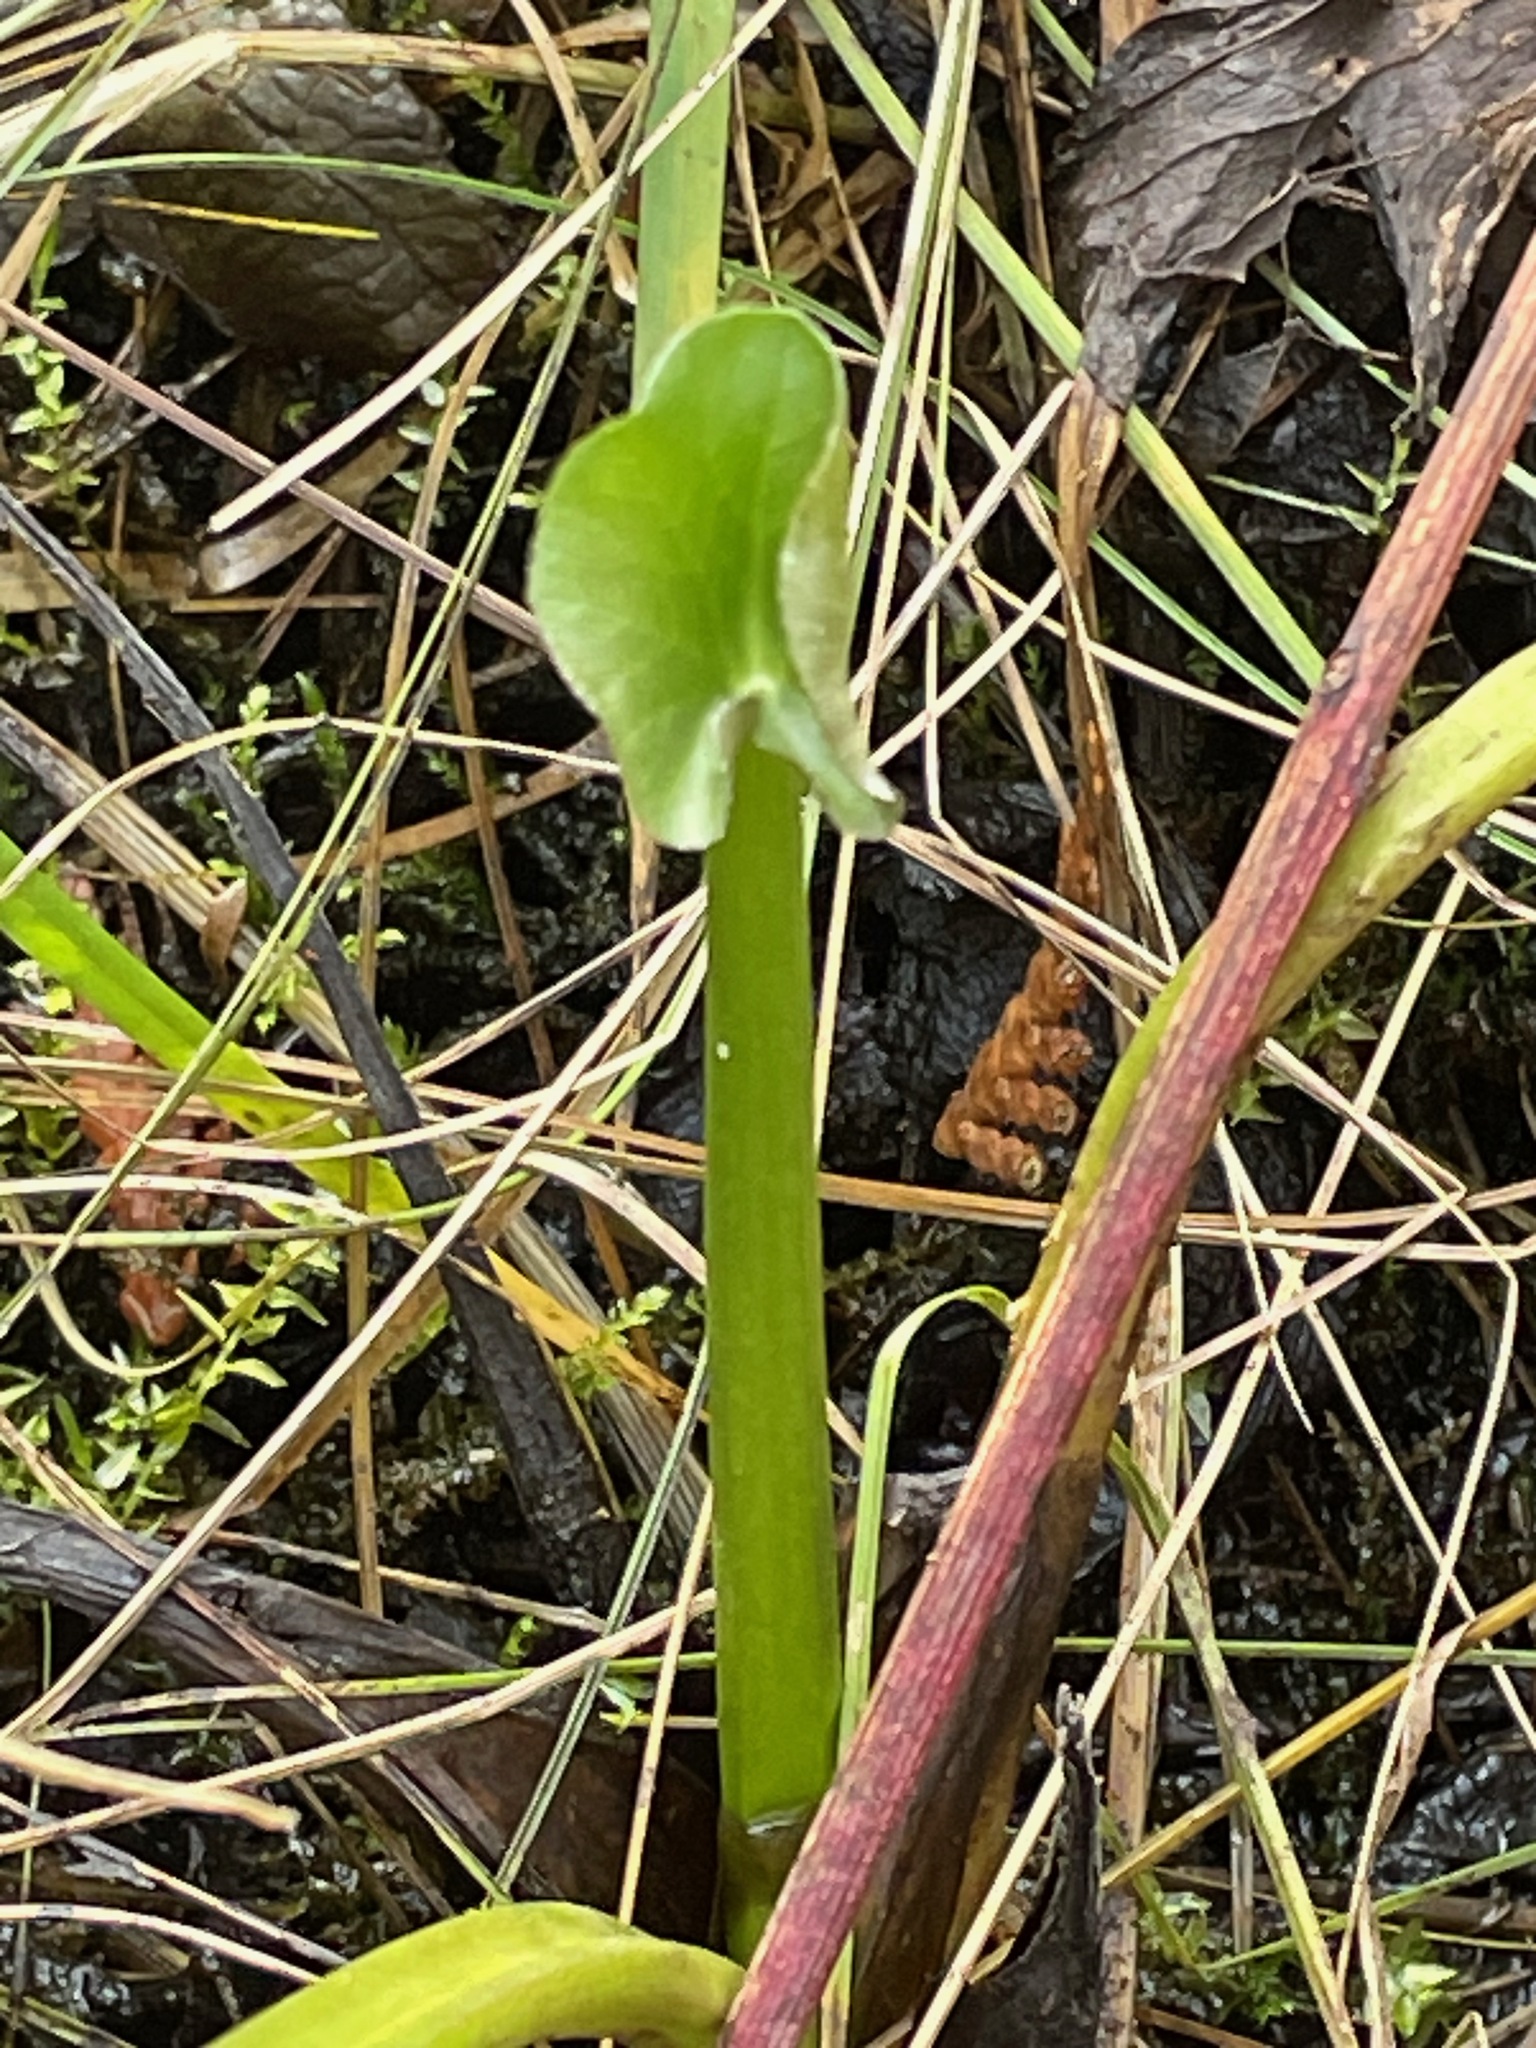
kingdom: Plantae
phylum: Tracheophyta
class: Magnoliopsida
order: Ranunculales
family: Ranunculaceae
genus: Caltha
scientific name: Caltha palustris
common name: Marsh marigold
